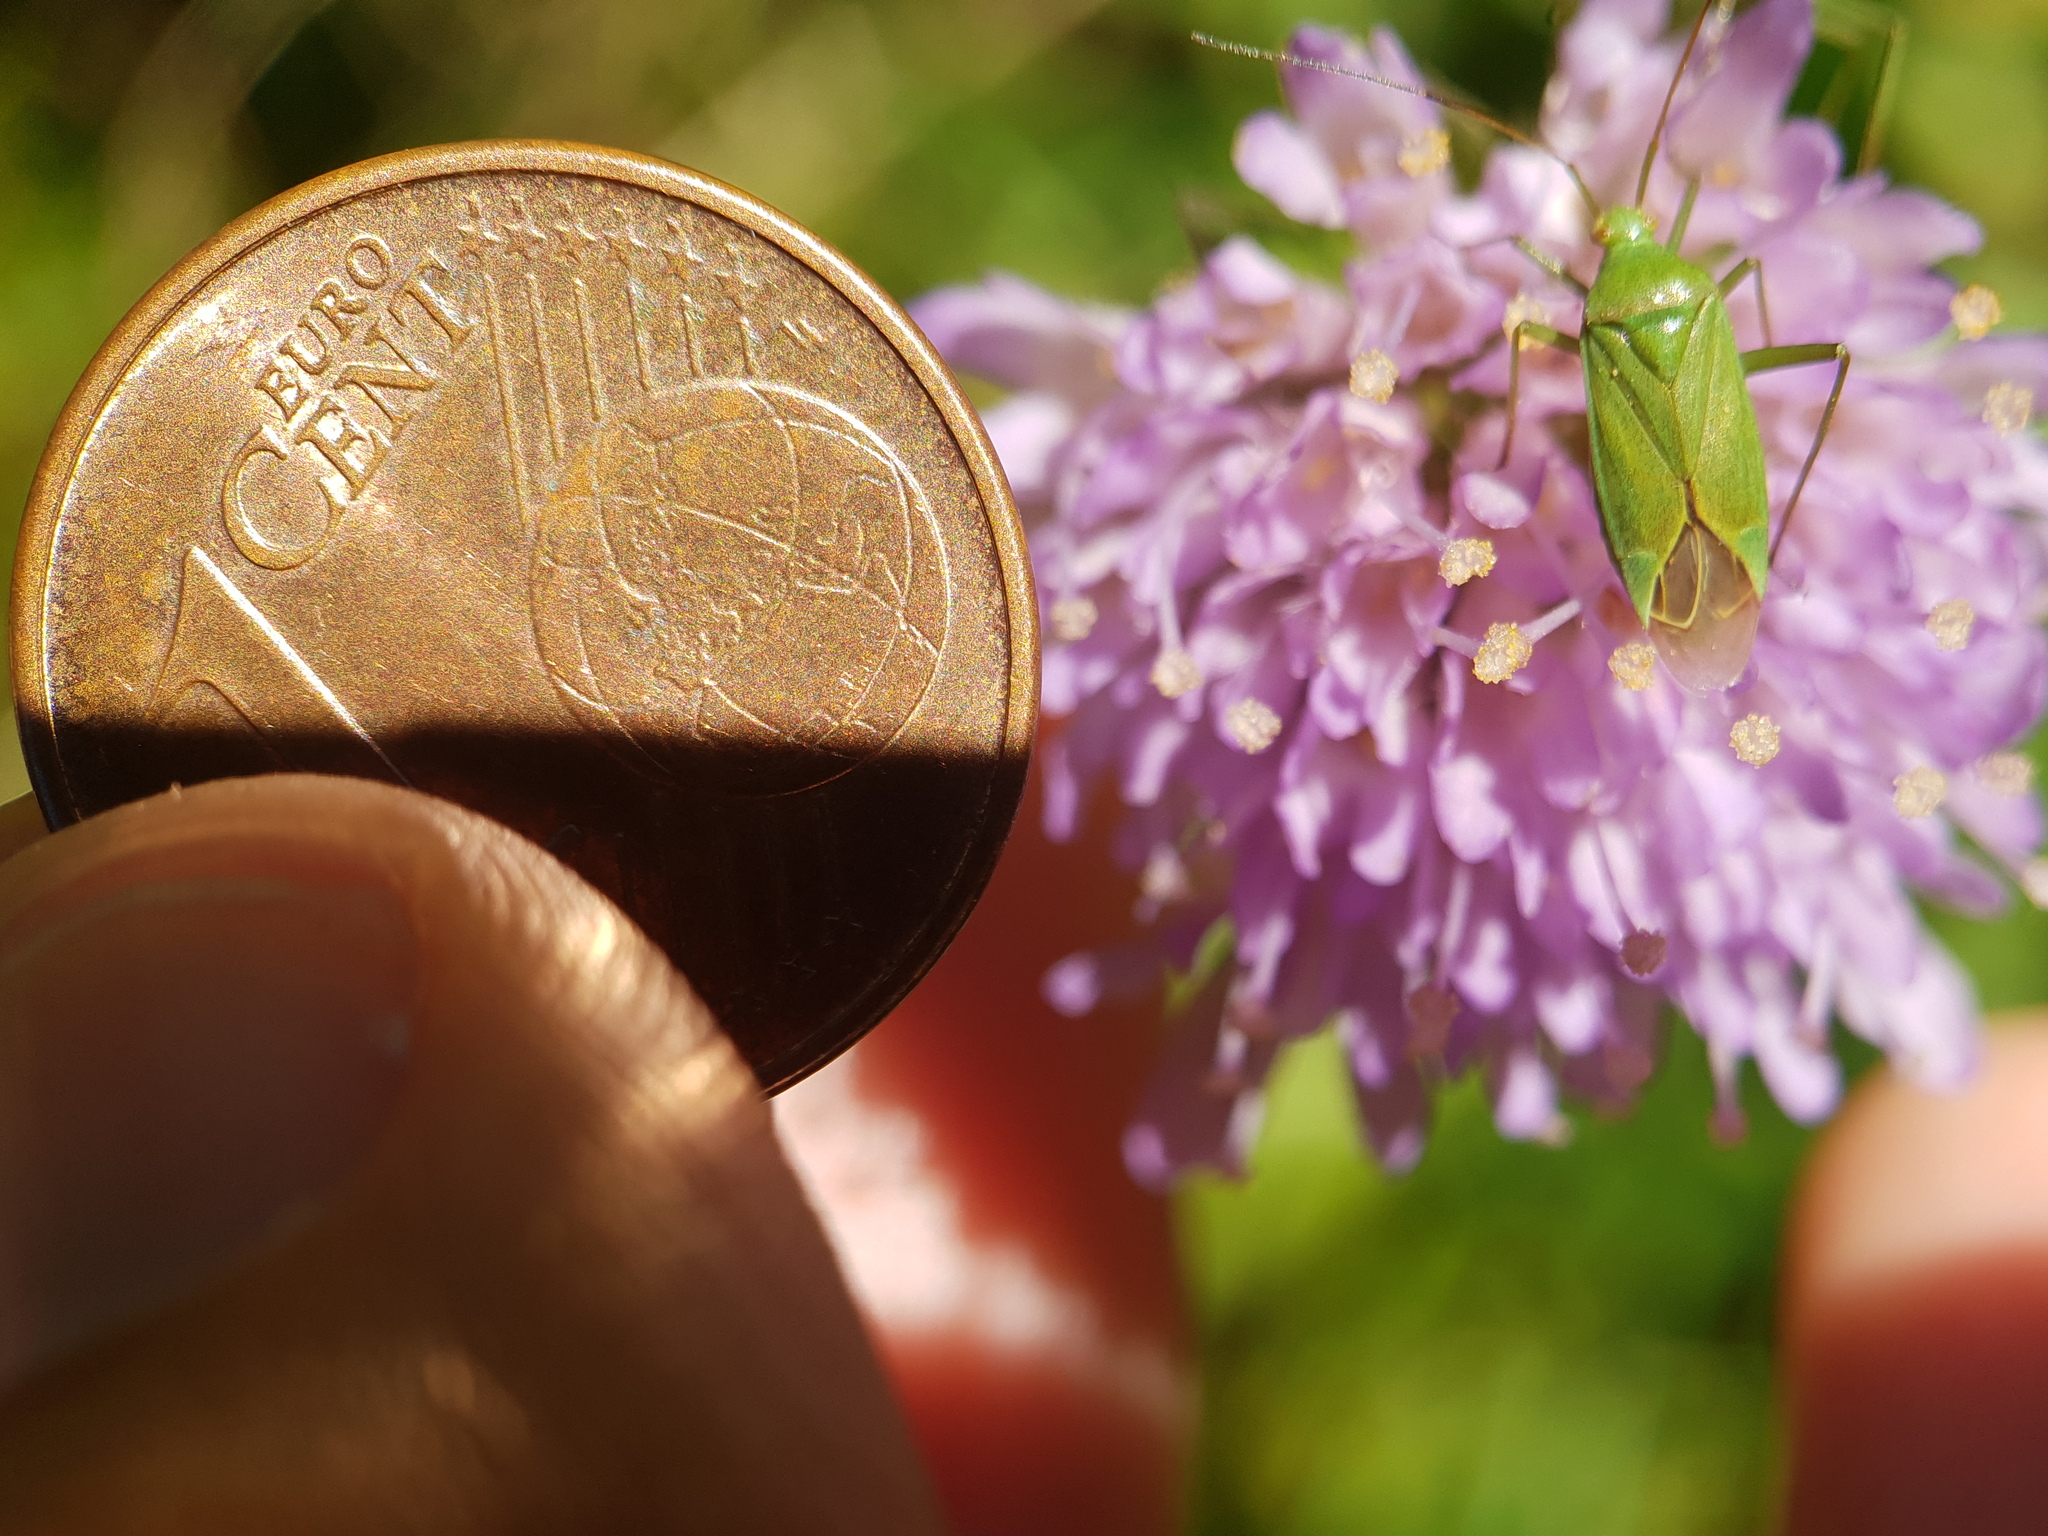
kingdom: Animalia
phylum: Arthropoda
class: Insecta
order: Hemiptera
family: Miridae
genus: Calocoris
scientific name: Calocoris affinis
